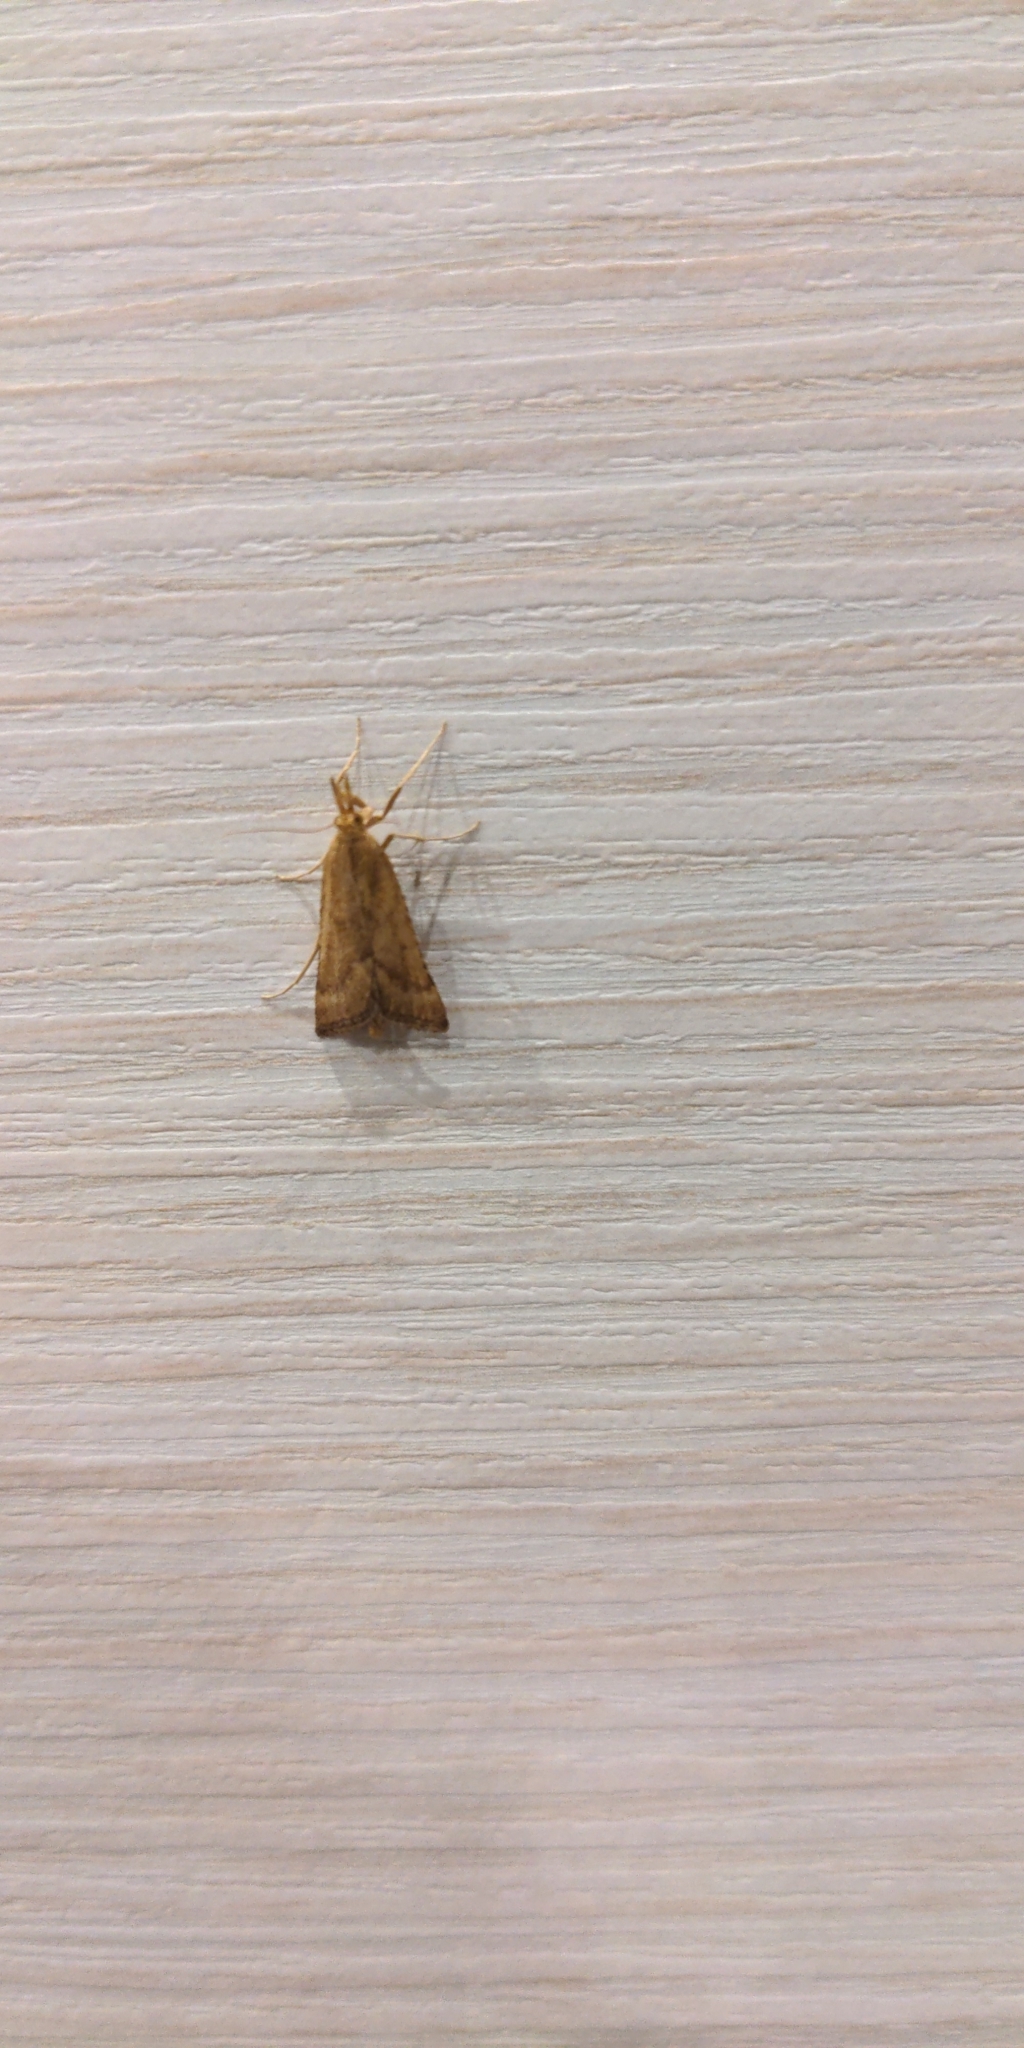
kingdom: Animalia
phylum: Arthropoda
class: Insecta
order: Lepidoptera
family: Pyralidae
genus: Synaphe
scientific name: Synaphe punctalis
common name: Long-legged tabby
